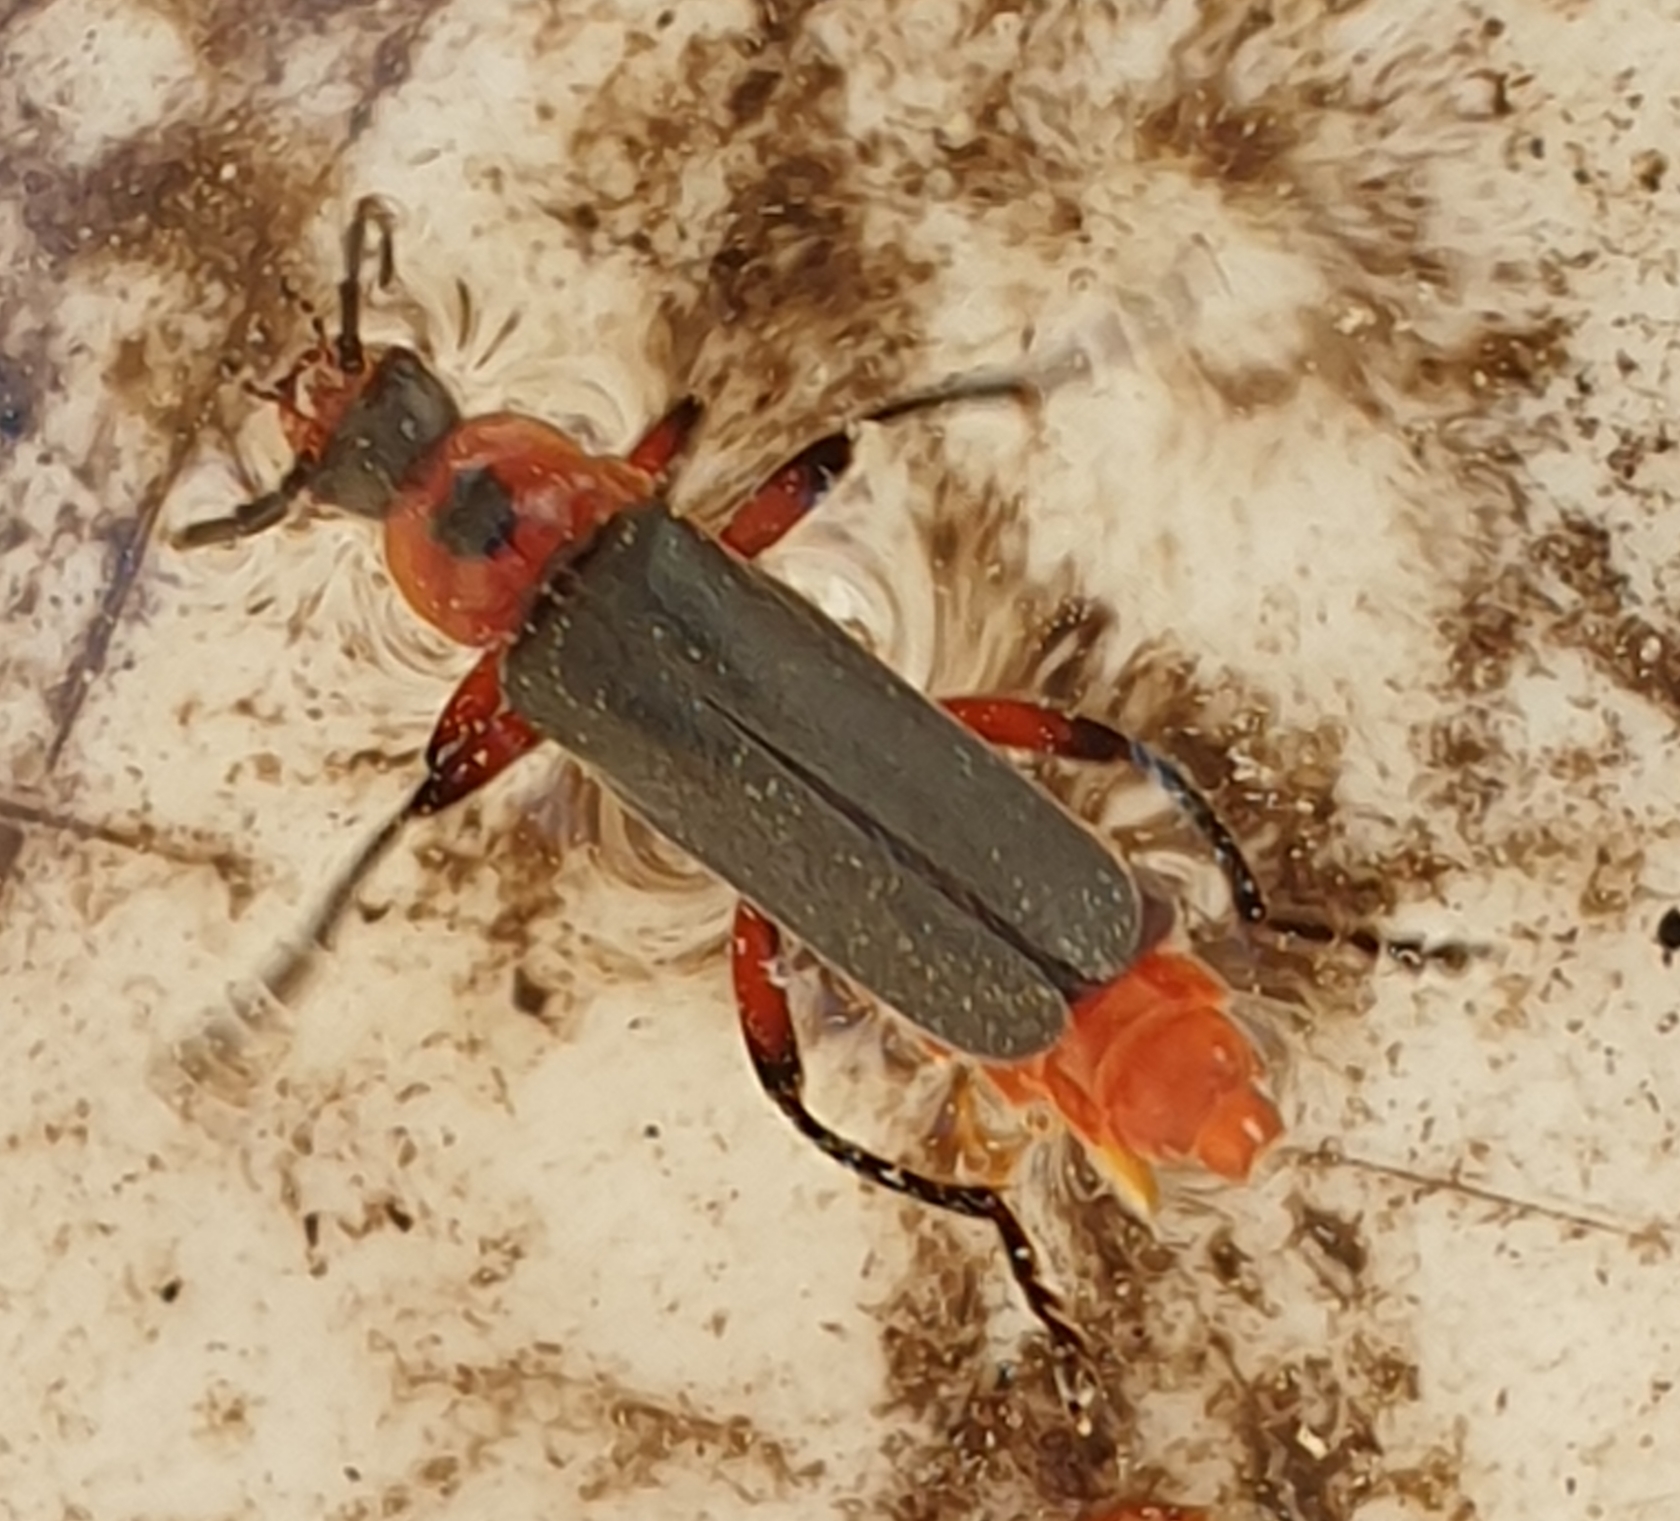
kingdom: Animalia
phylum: Arthropoda
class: Insecta
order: Coleoptera
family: Cantharidae
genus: Cantharis
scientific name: Cantharis rustica
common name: Soldier beetle
